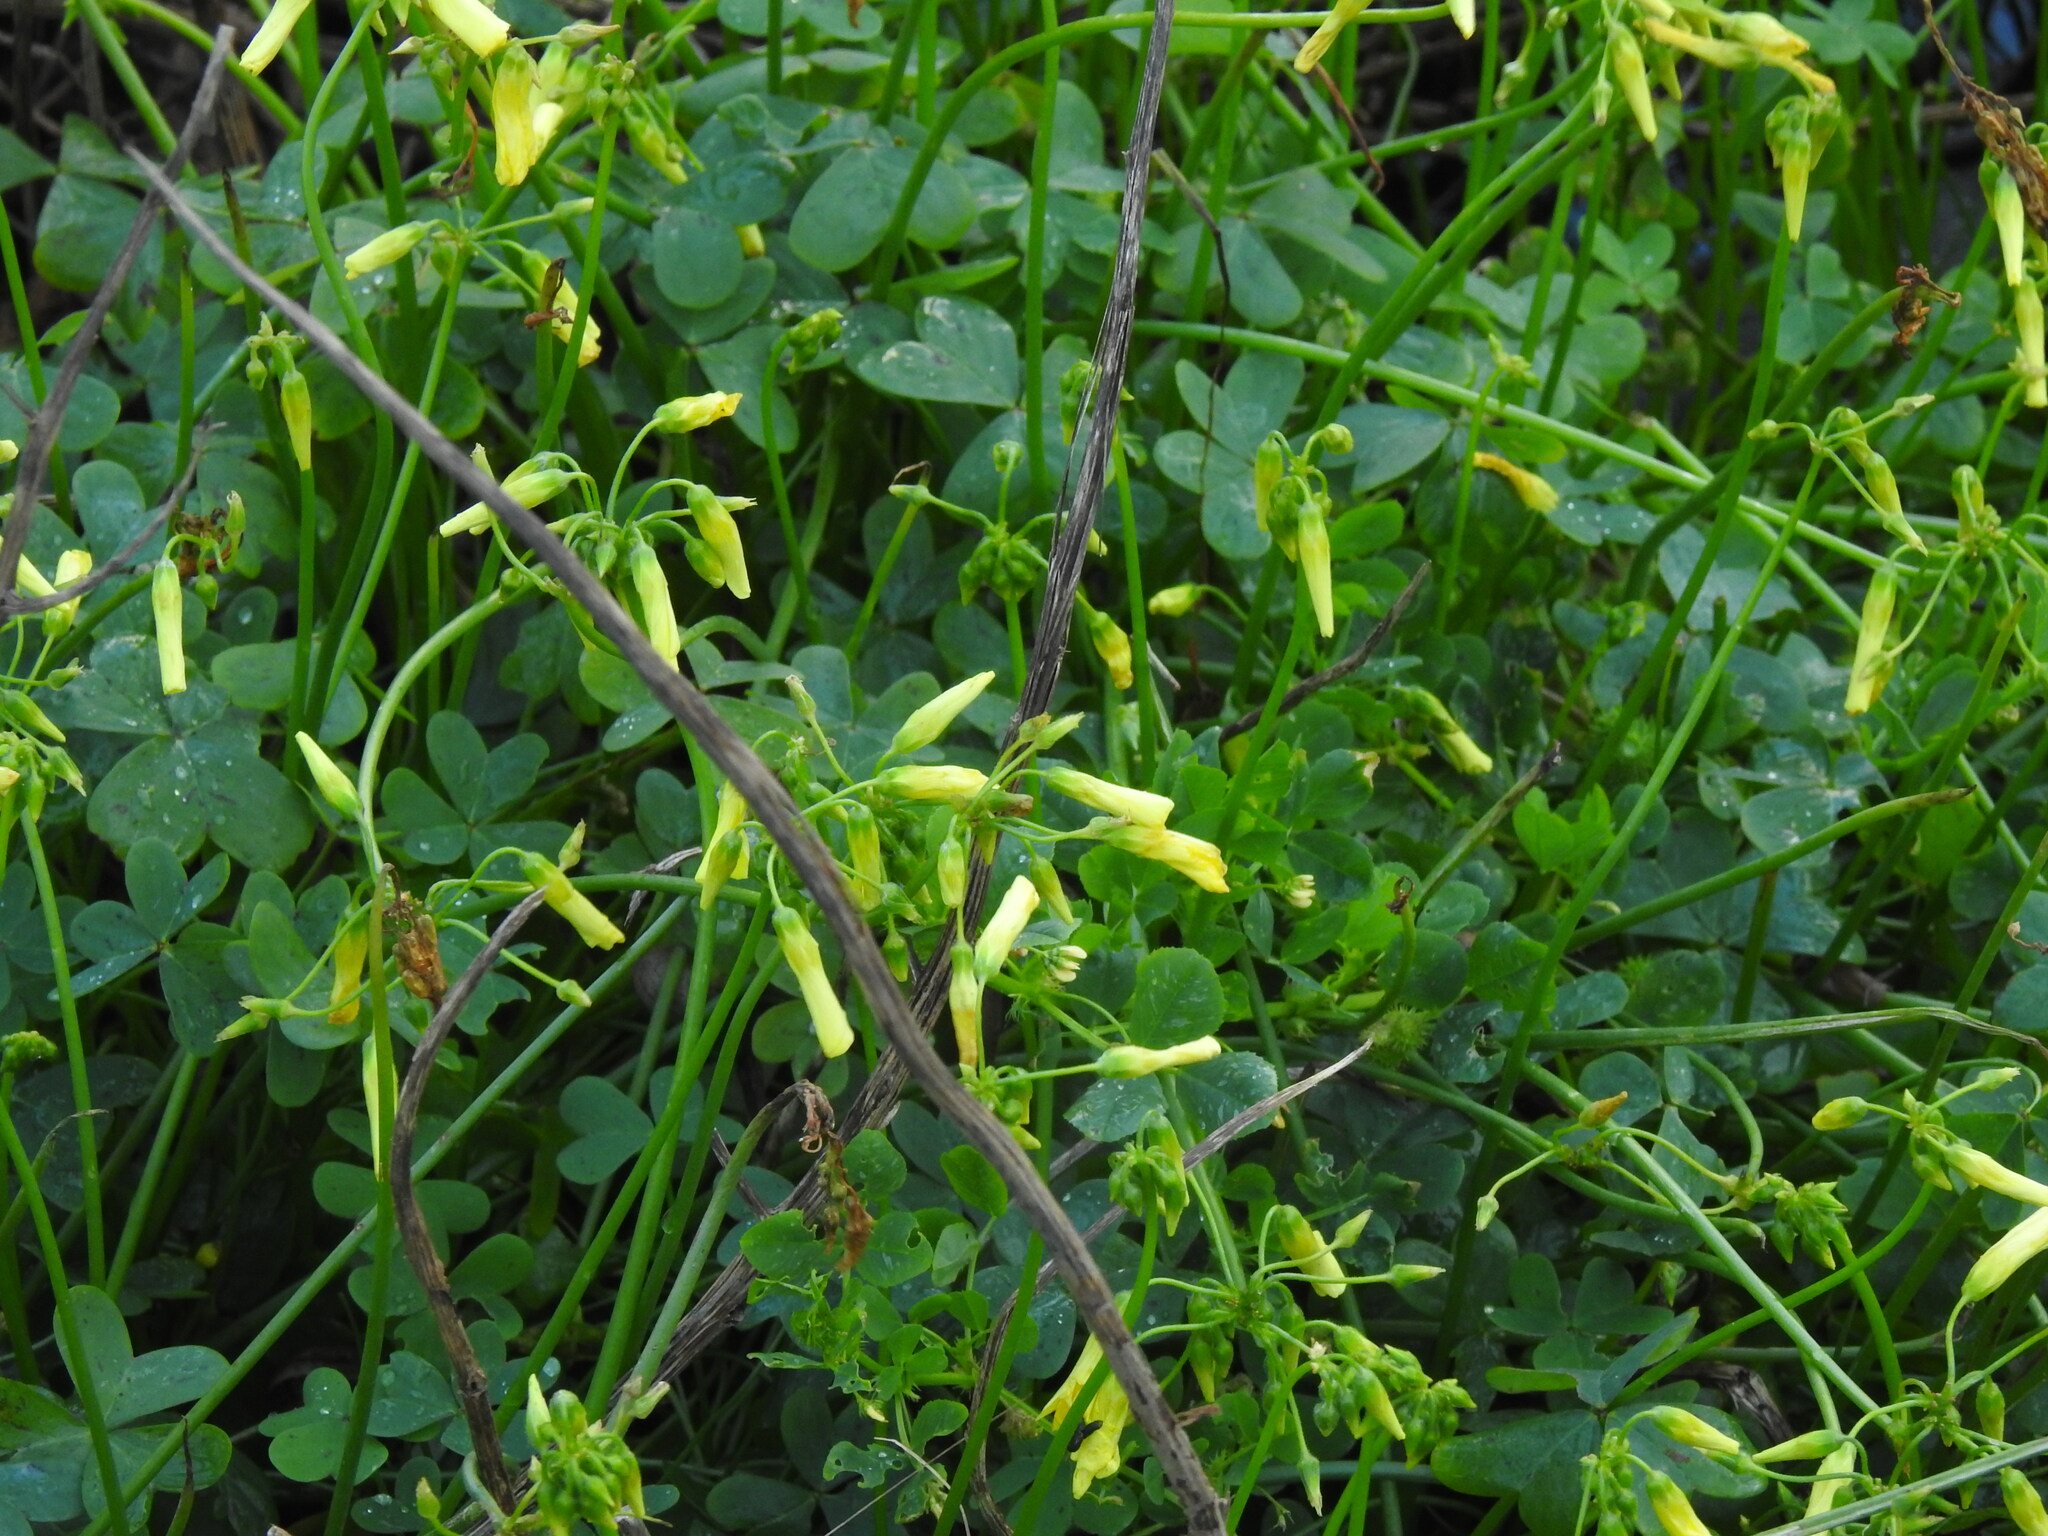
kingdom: Plantae
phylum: Tracheophyta
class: Magnoliopsida
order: Oxalidales
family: Oxalidaceae
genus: Oxalis
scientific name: Oxalis pes-caprae
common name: Bermuda-buttercup
